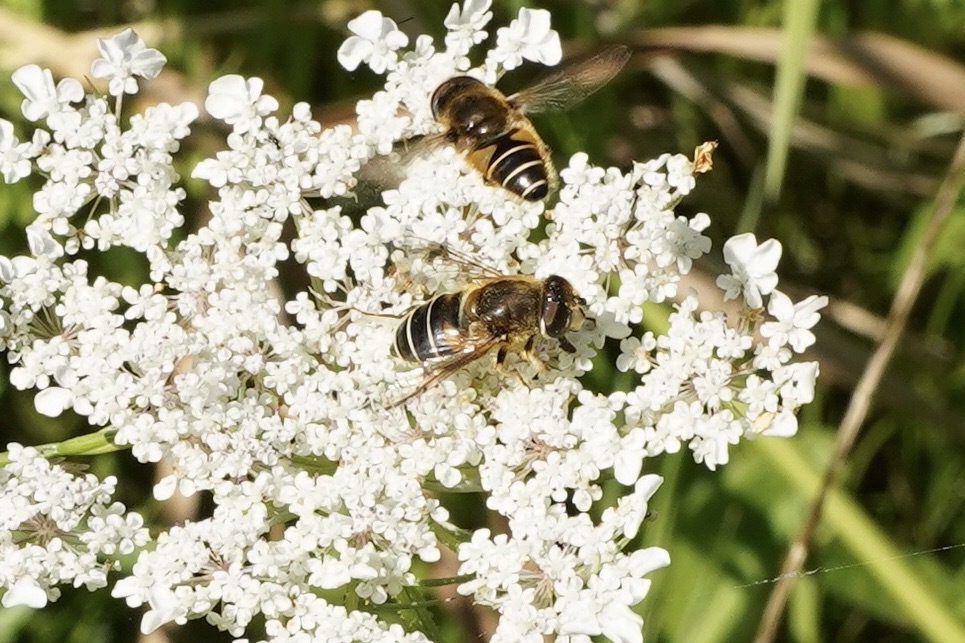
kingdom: Animalia
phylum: Arthropoda
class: Insecta
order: Diptera
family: Syrphidae
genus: Eristalis
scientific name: Eristalis nemorum
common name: Orange-spined drone fly
